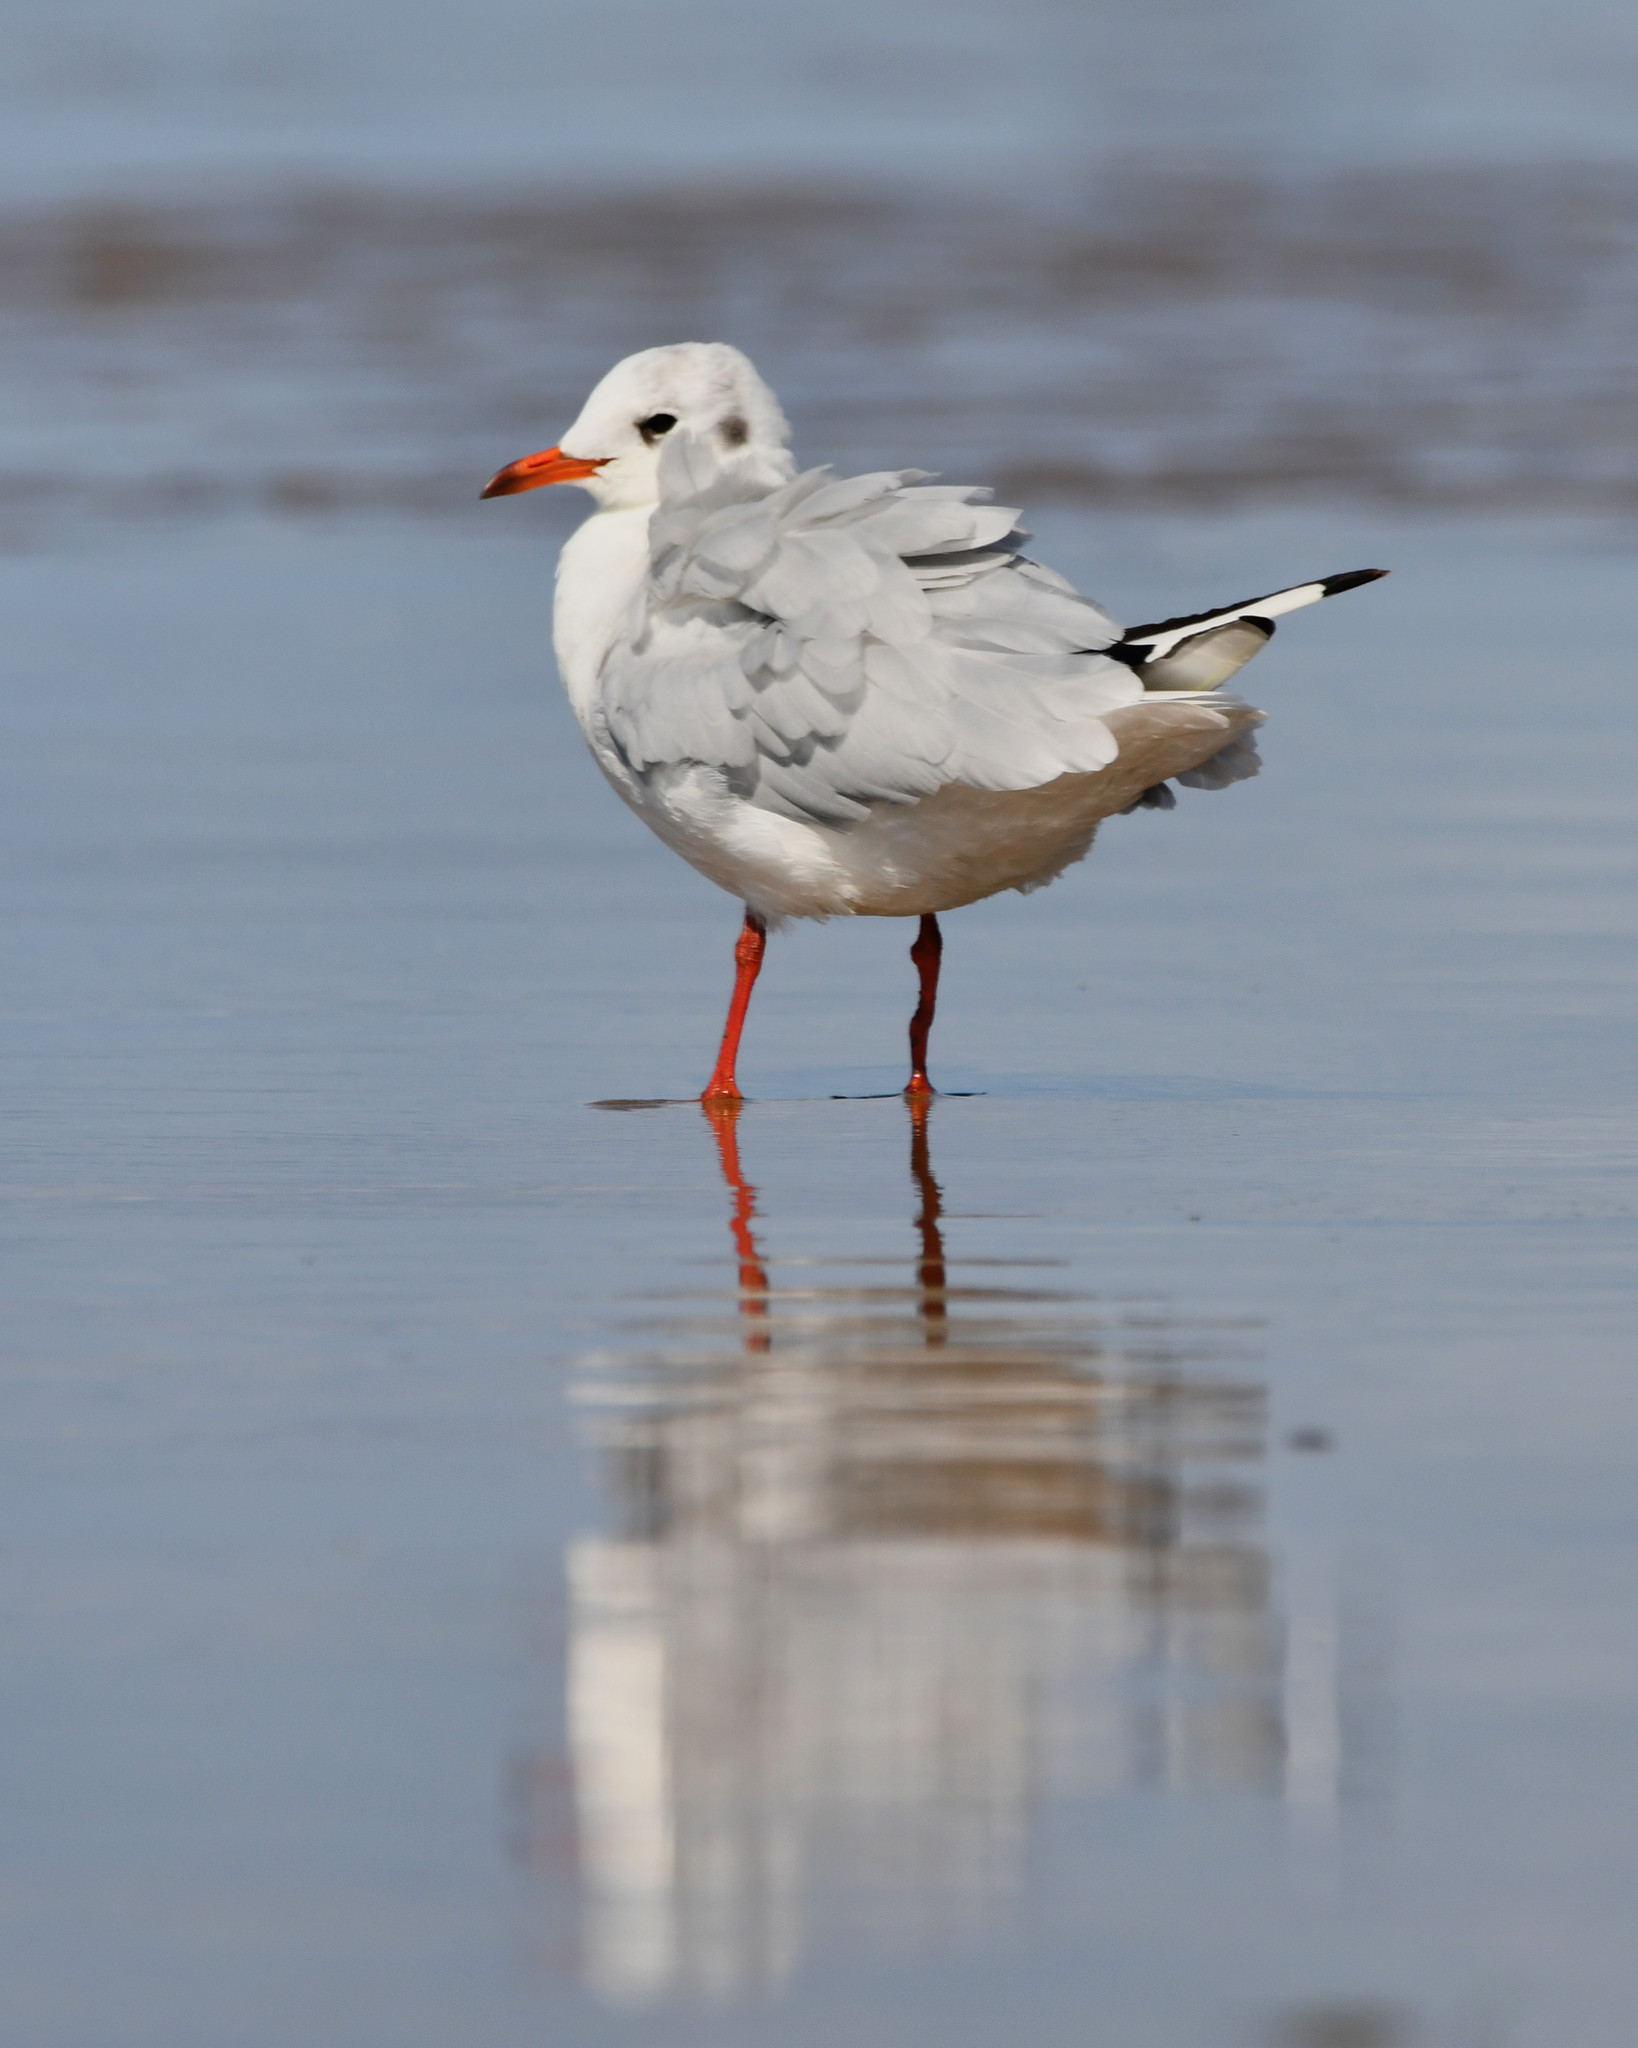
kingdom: Animalia
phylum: Chordata
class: Aves
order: Charadriiformes
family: Laridae
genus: Chroicocephalus
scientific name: Chroicocephalus ridibundus
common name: Black-headed gull
